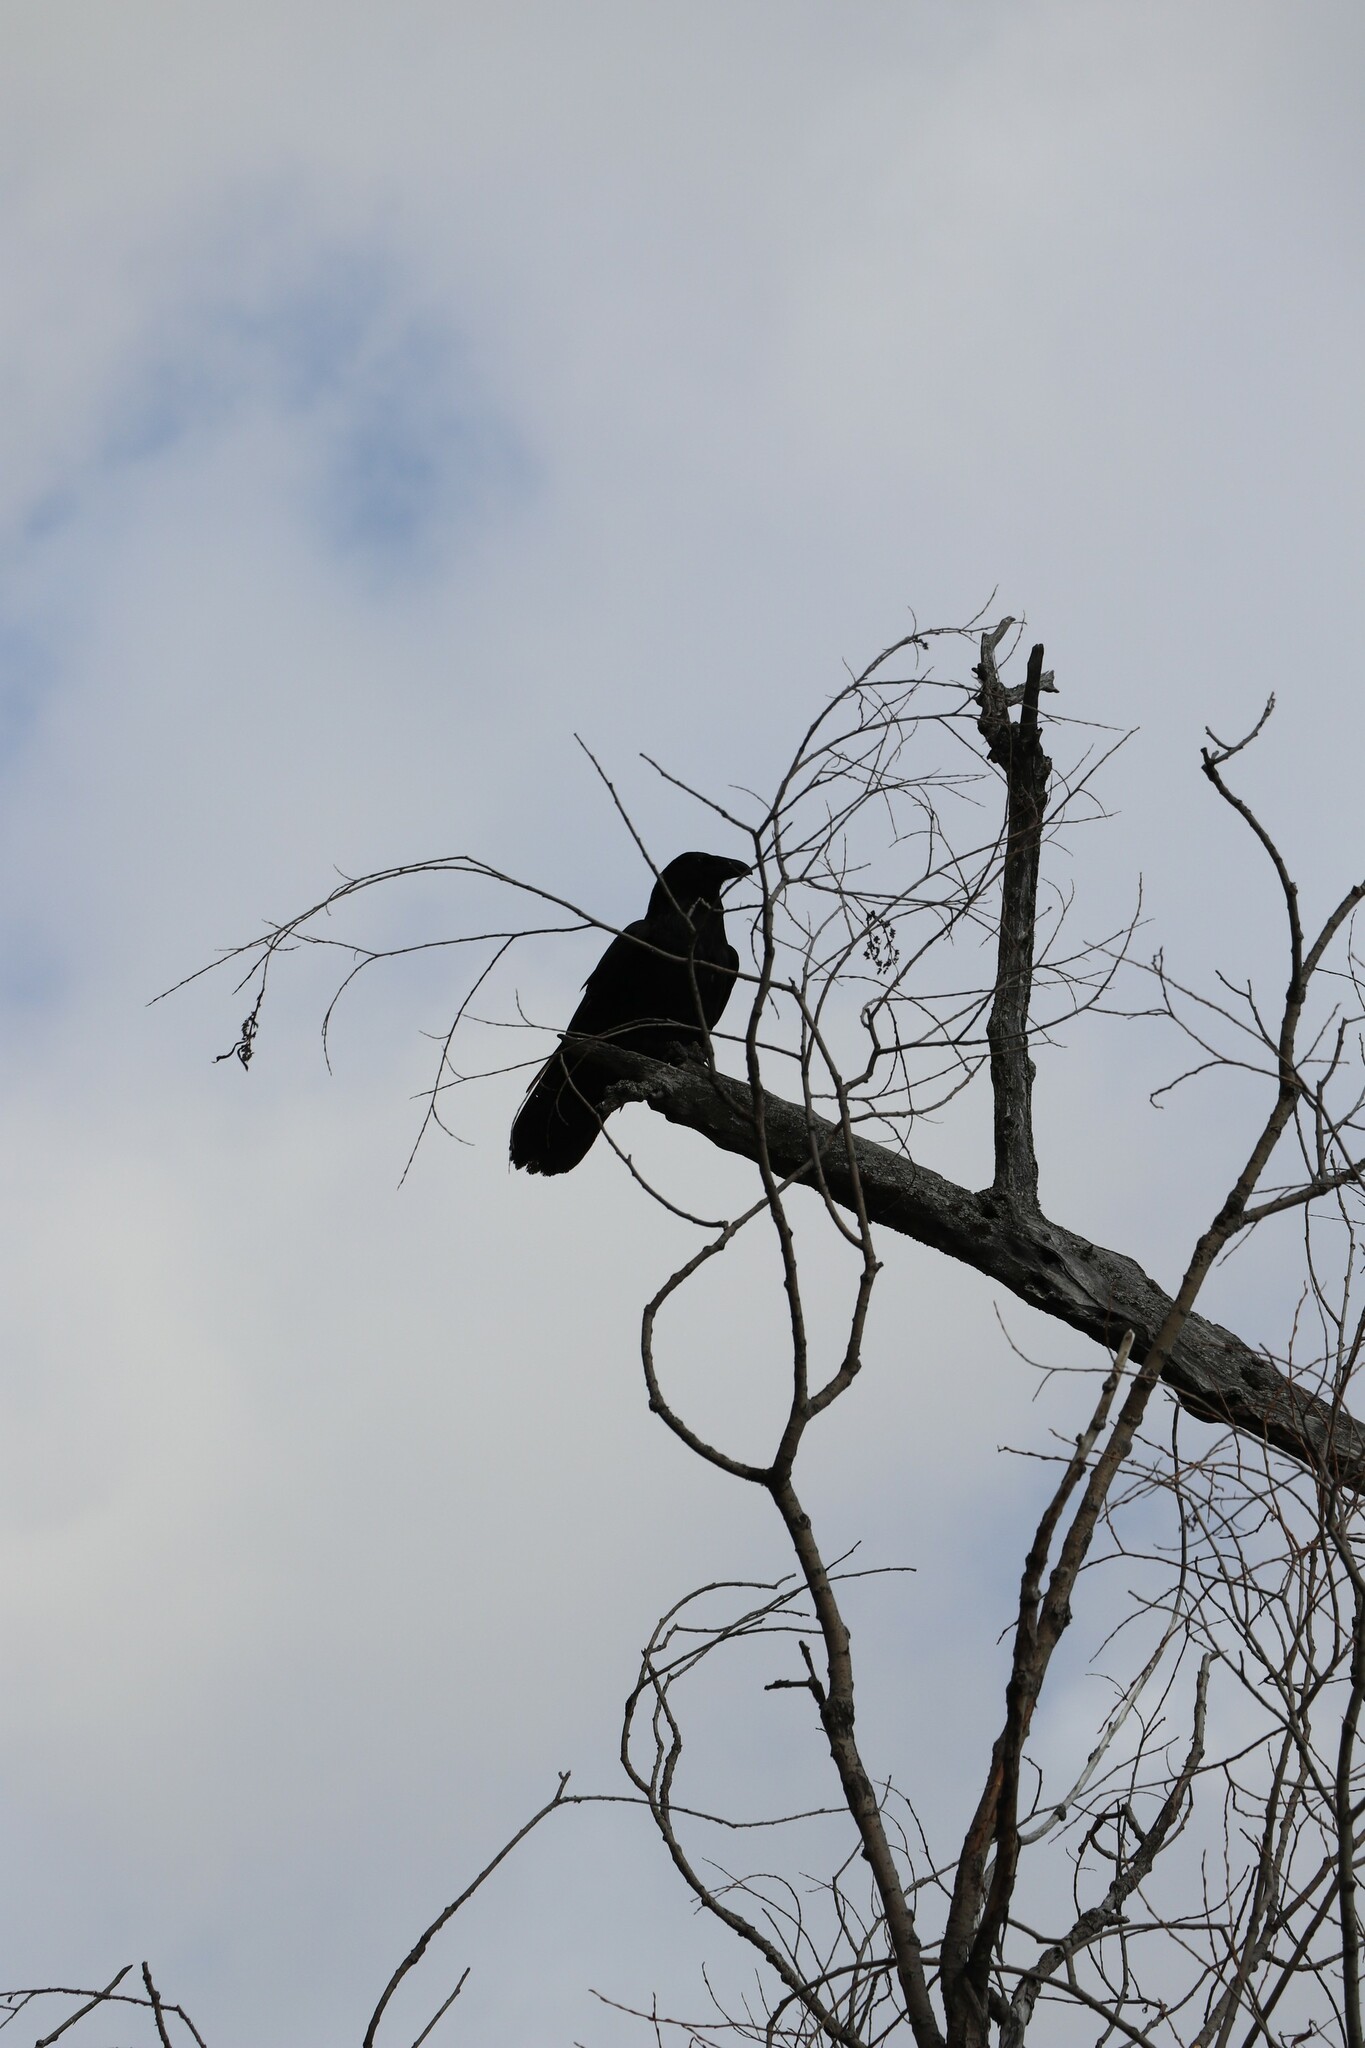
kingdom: Animalia
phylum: Chordata
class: Aves
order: Passeriformes
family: Corvidae
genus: Corvus
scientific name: Corvus corax
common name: Common raven
